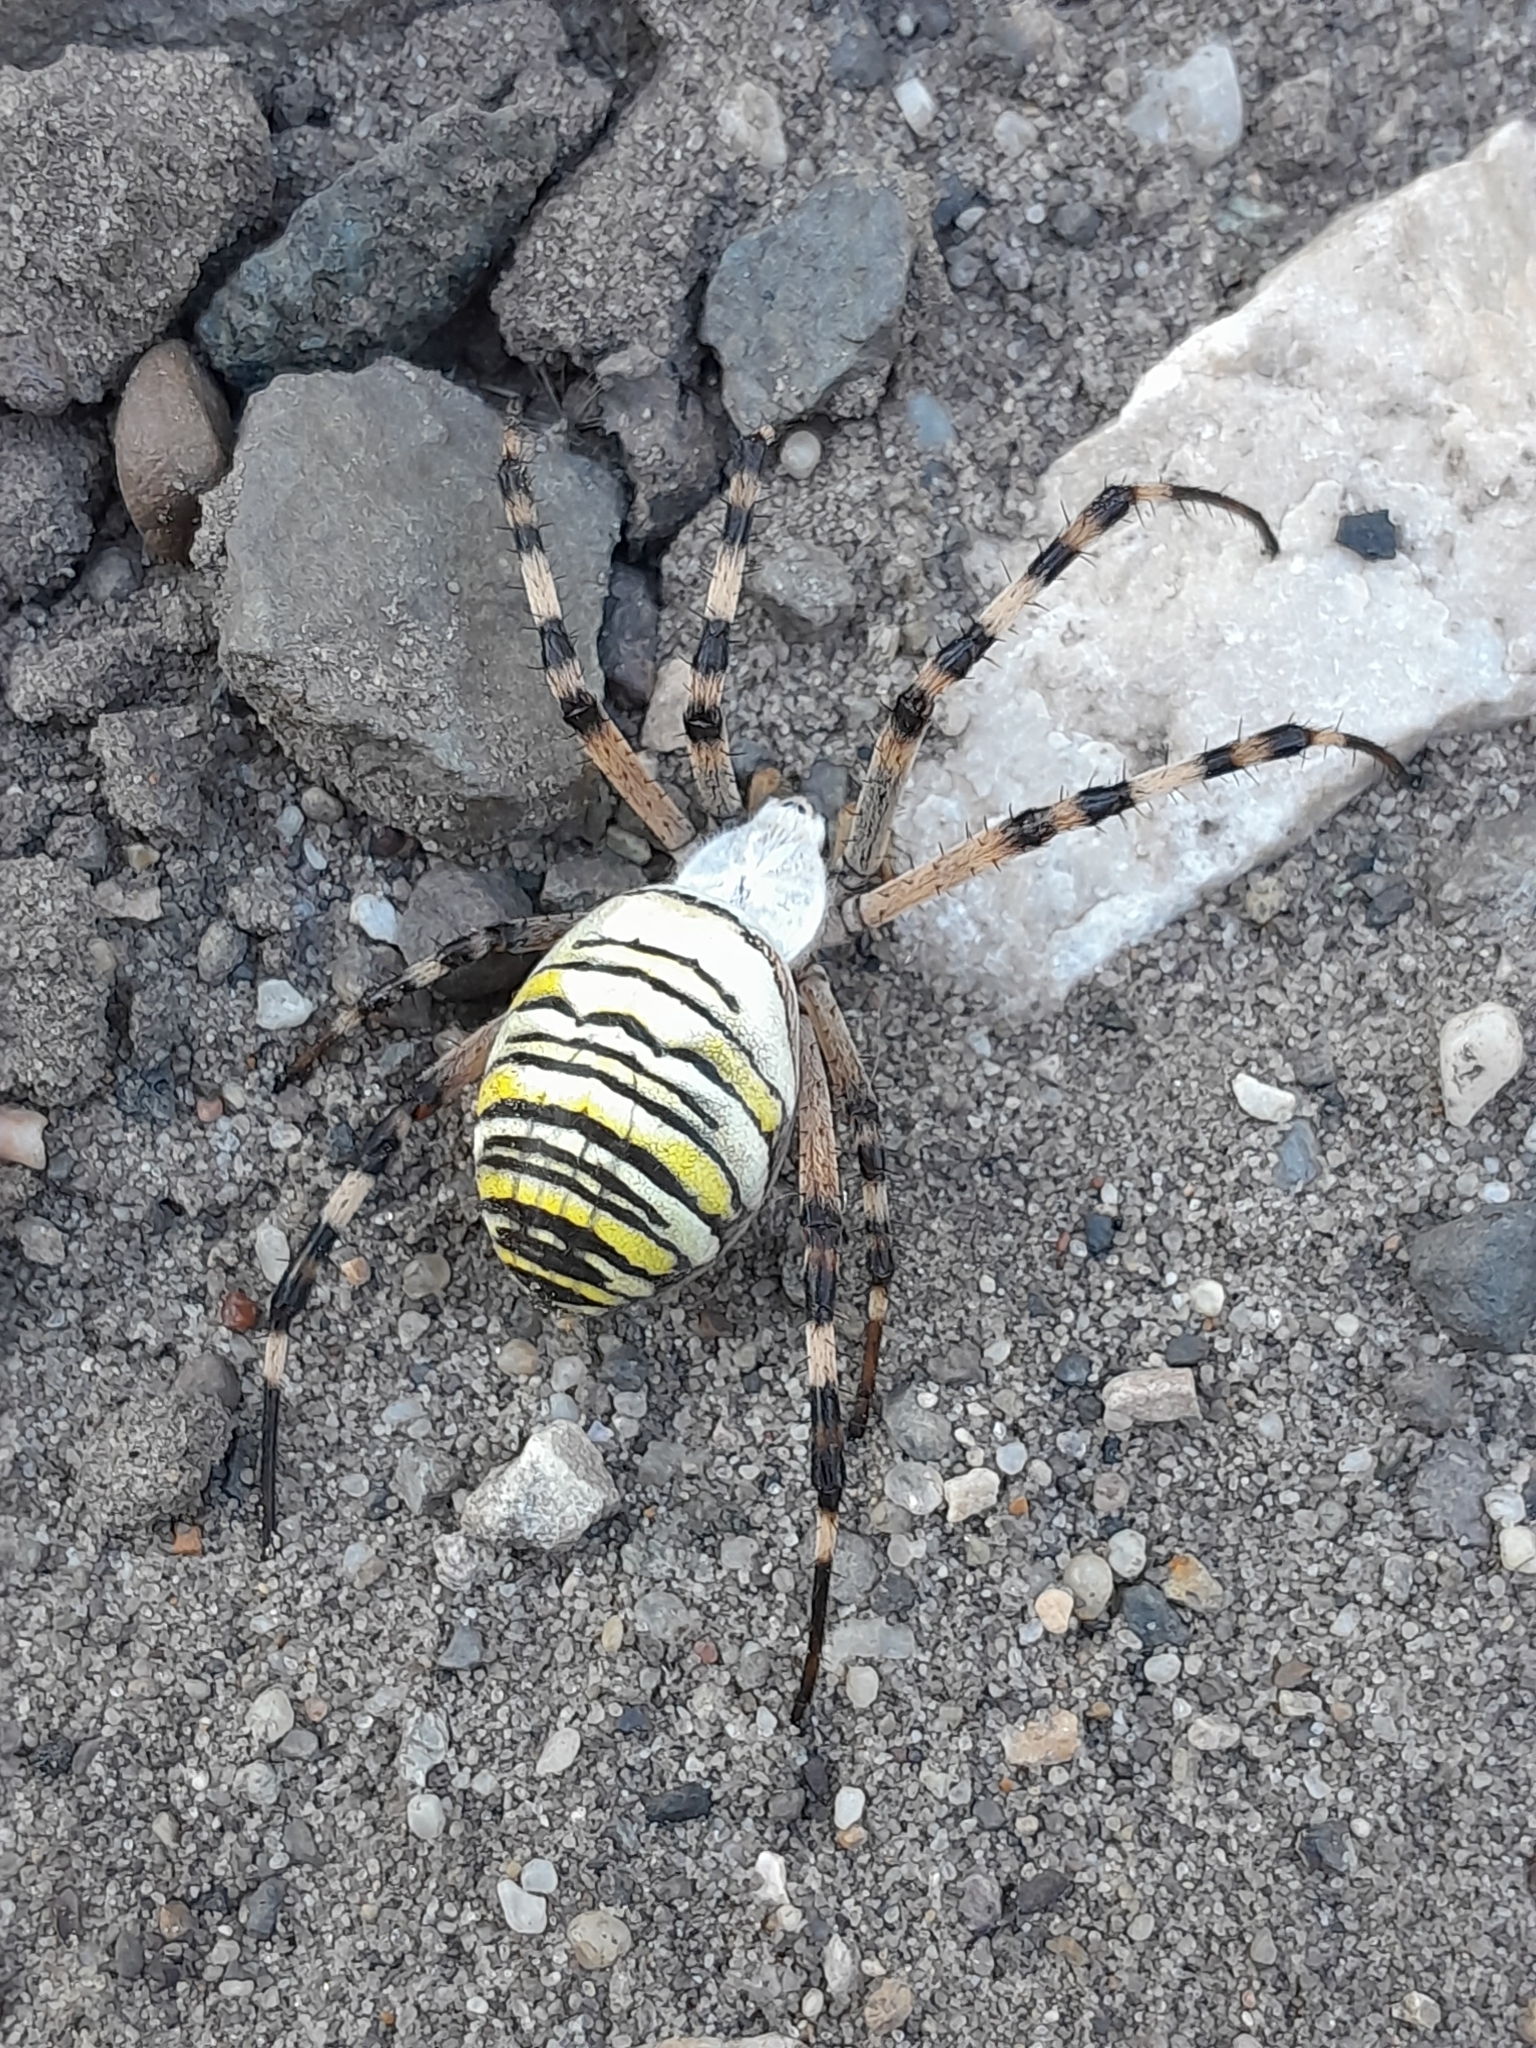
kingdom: Animalia
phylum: Arthropoda
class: Arachnida
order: Araneae
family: Araneidae
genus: Argiope
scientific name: Argiope bruennichi
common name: Wasp spider
